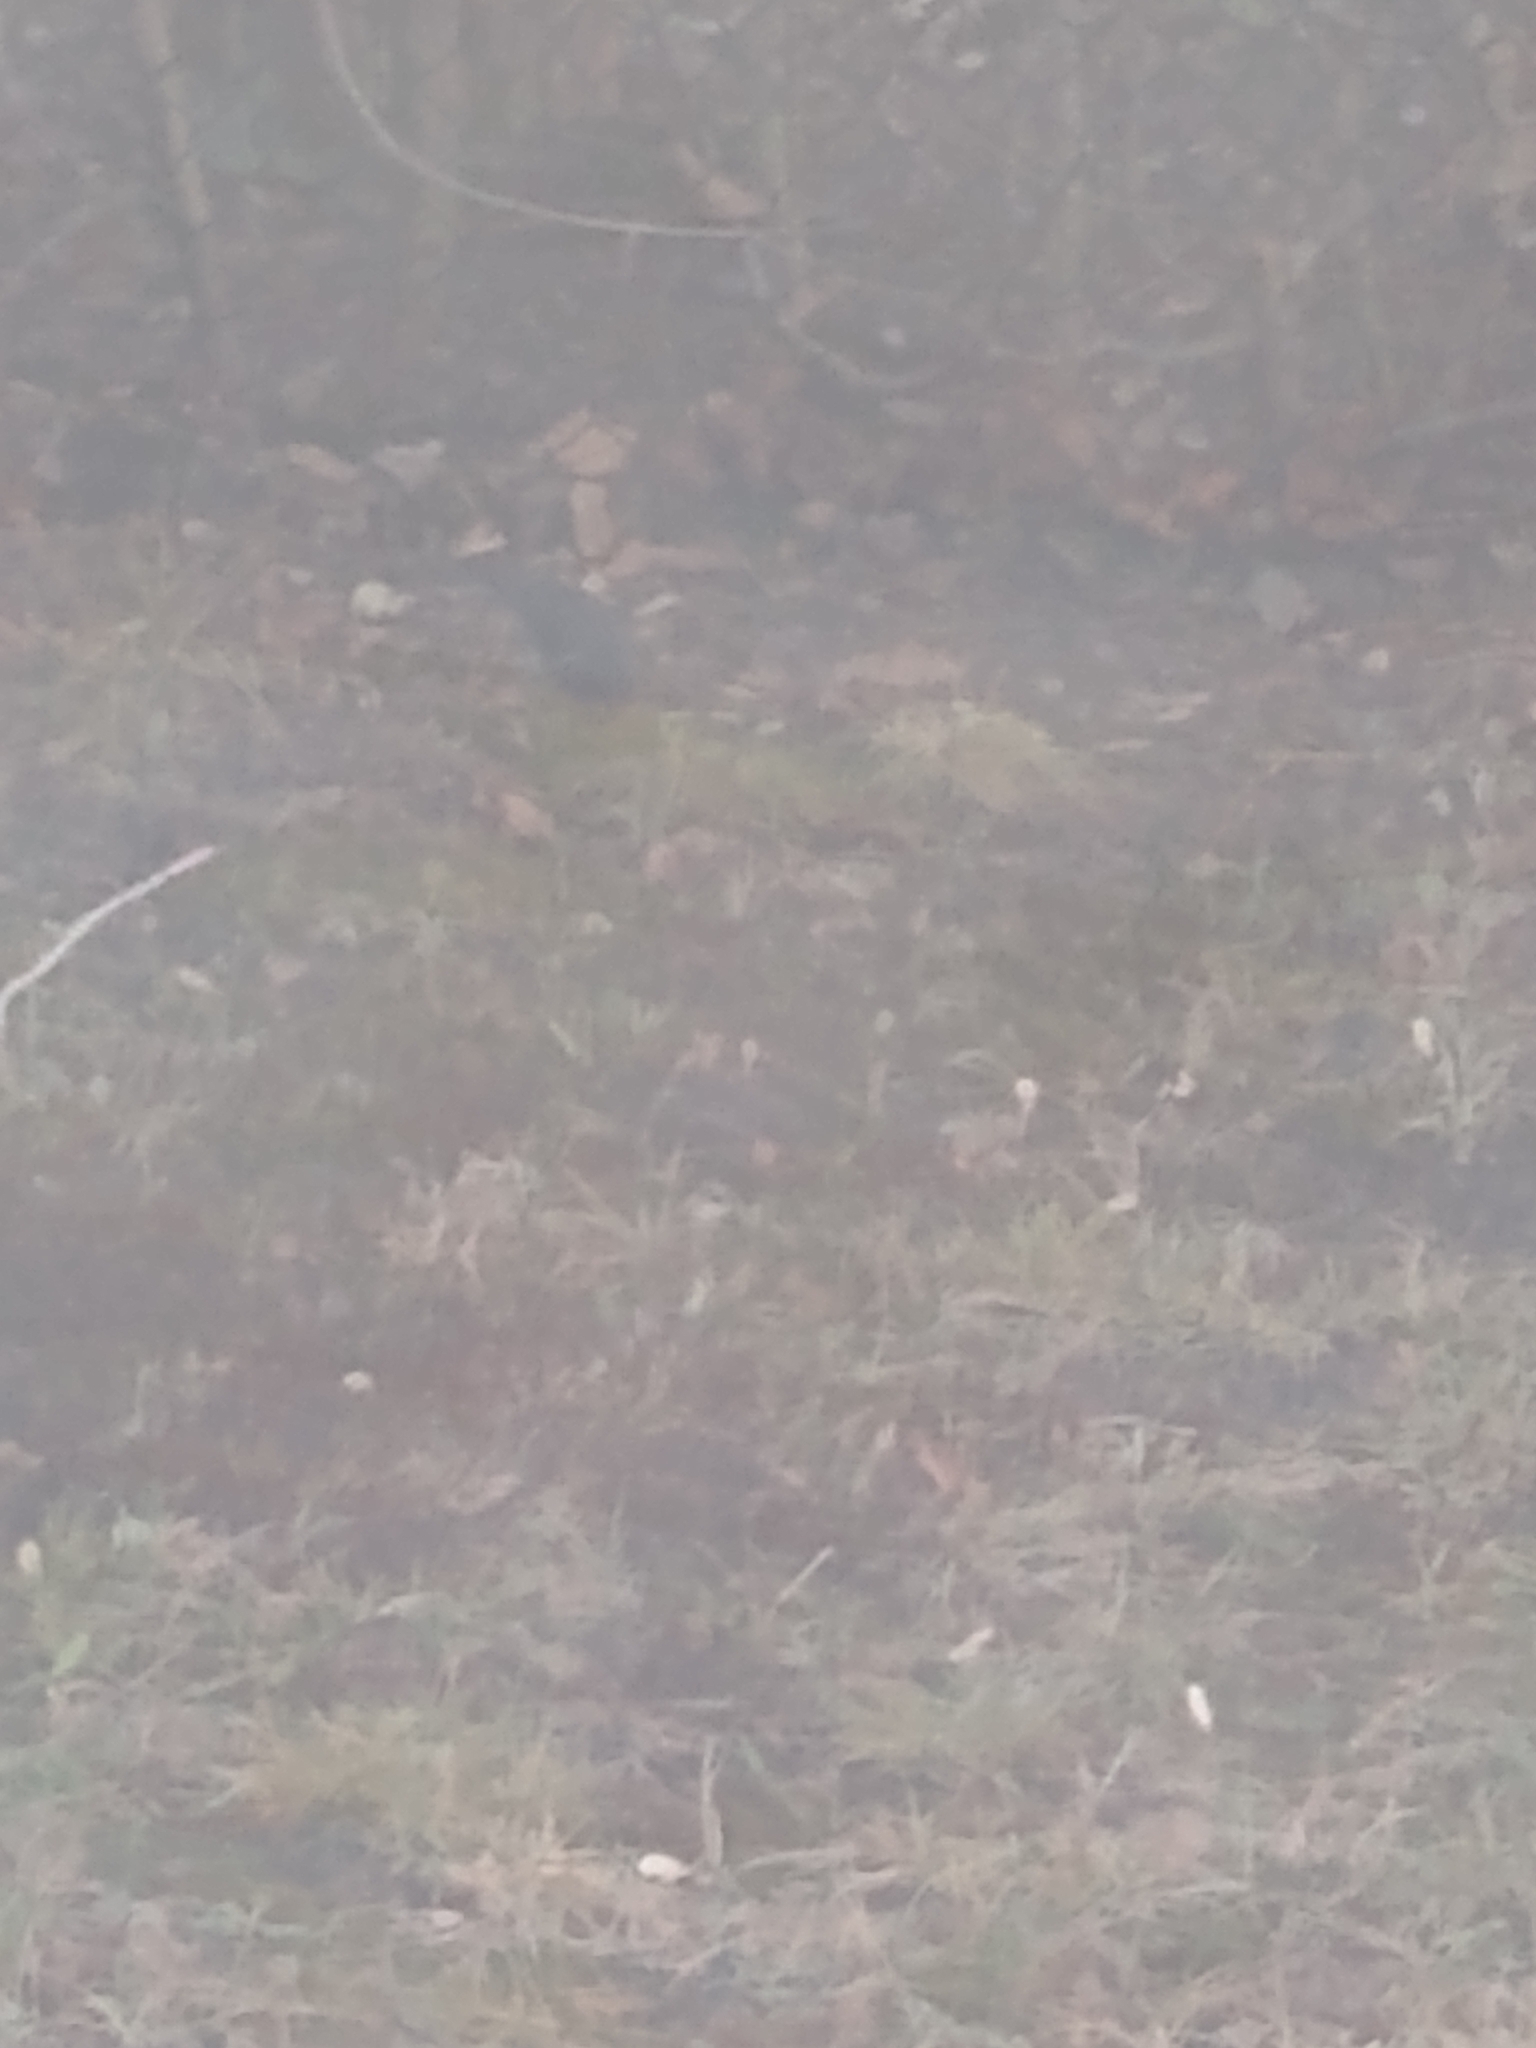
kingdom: Animalia
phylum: Chordata
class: Aves
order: Passeriformes
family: Passerellidae
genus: Junco
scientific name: Junco hyemalis
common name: Dark-eyed junco
